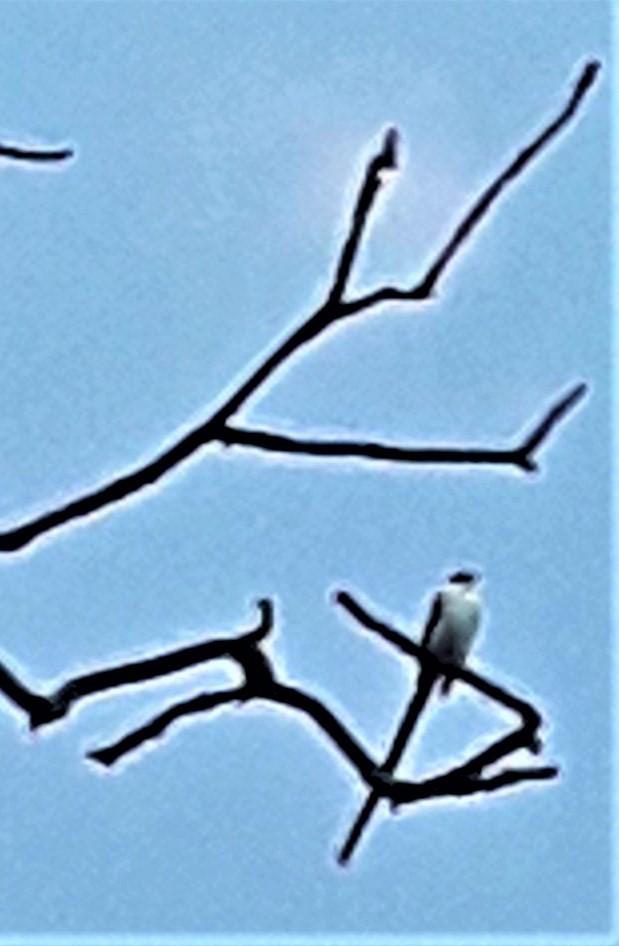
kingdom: Animalia
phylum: Chordata
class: Aves
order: Passeriformes
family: Tyrannidae
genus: Tyrannus
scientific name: Tyrannus savana
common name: Fork-tailed flycatcher
